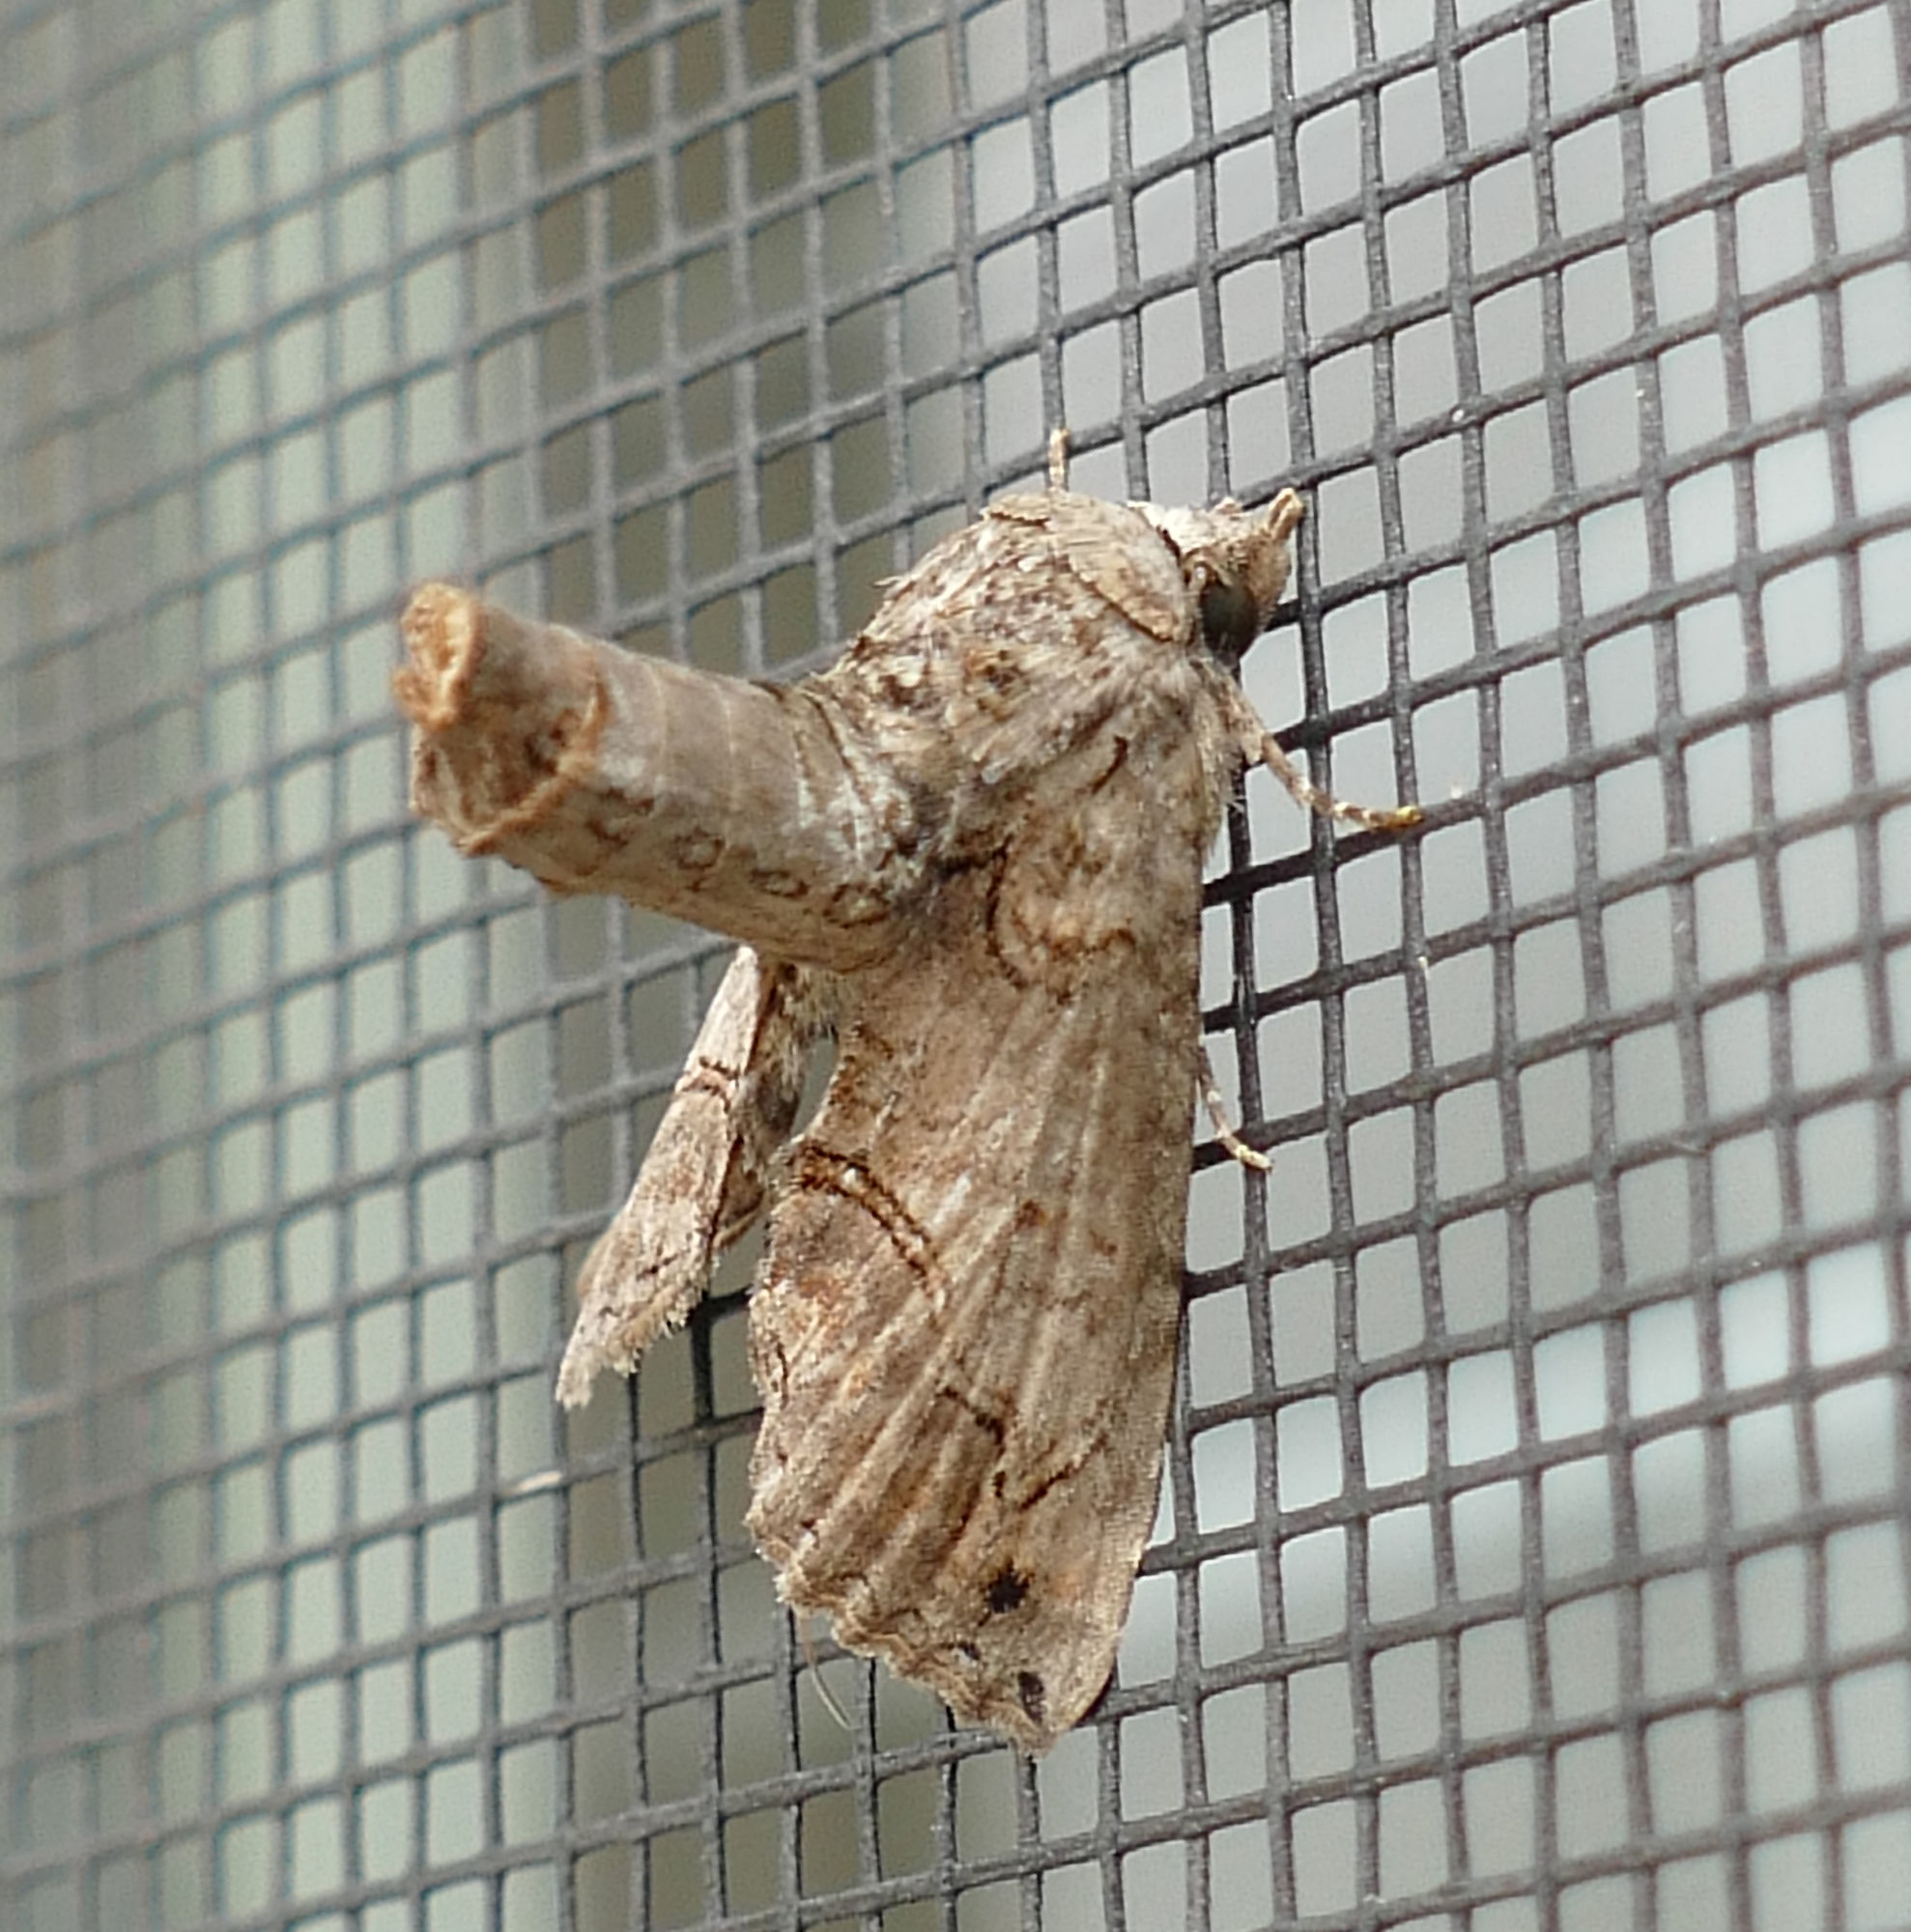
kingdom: Animalia
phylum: Arthropoda
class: Insecta
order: Lepidoptera
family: Euteliidae
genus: Paectes
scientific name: Paectes abrostoloides
